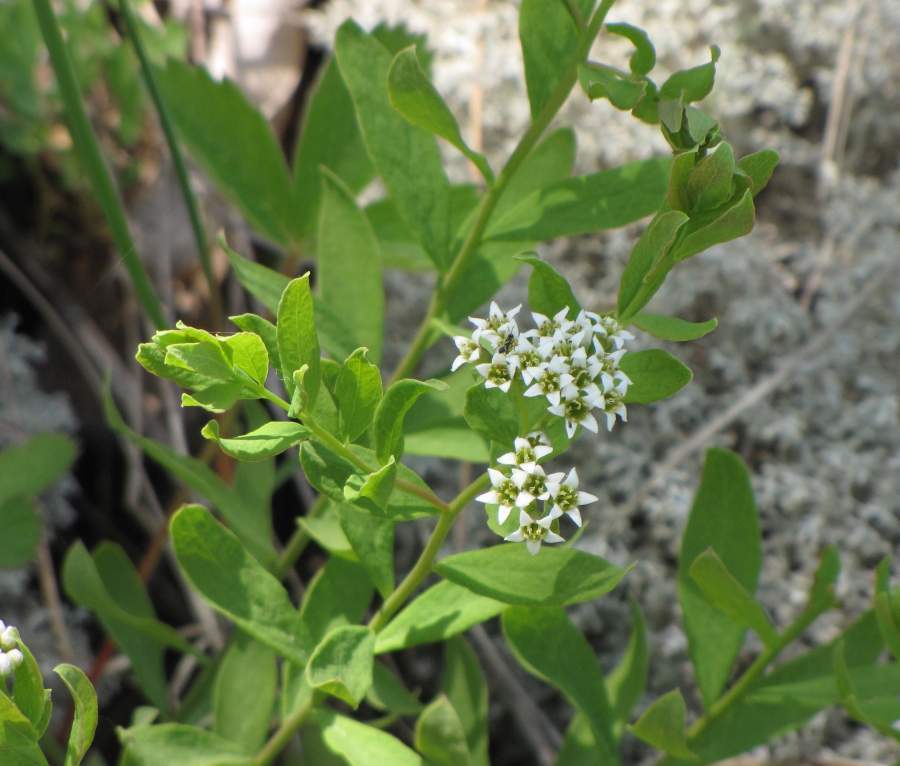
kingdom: Plantae
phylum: Tracheophyta
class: Magnoliopsida
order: Santalales
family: Comandraceae
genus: Comandra
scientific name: Comandra umbellata
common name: Bastard toadflax
